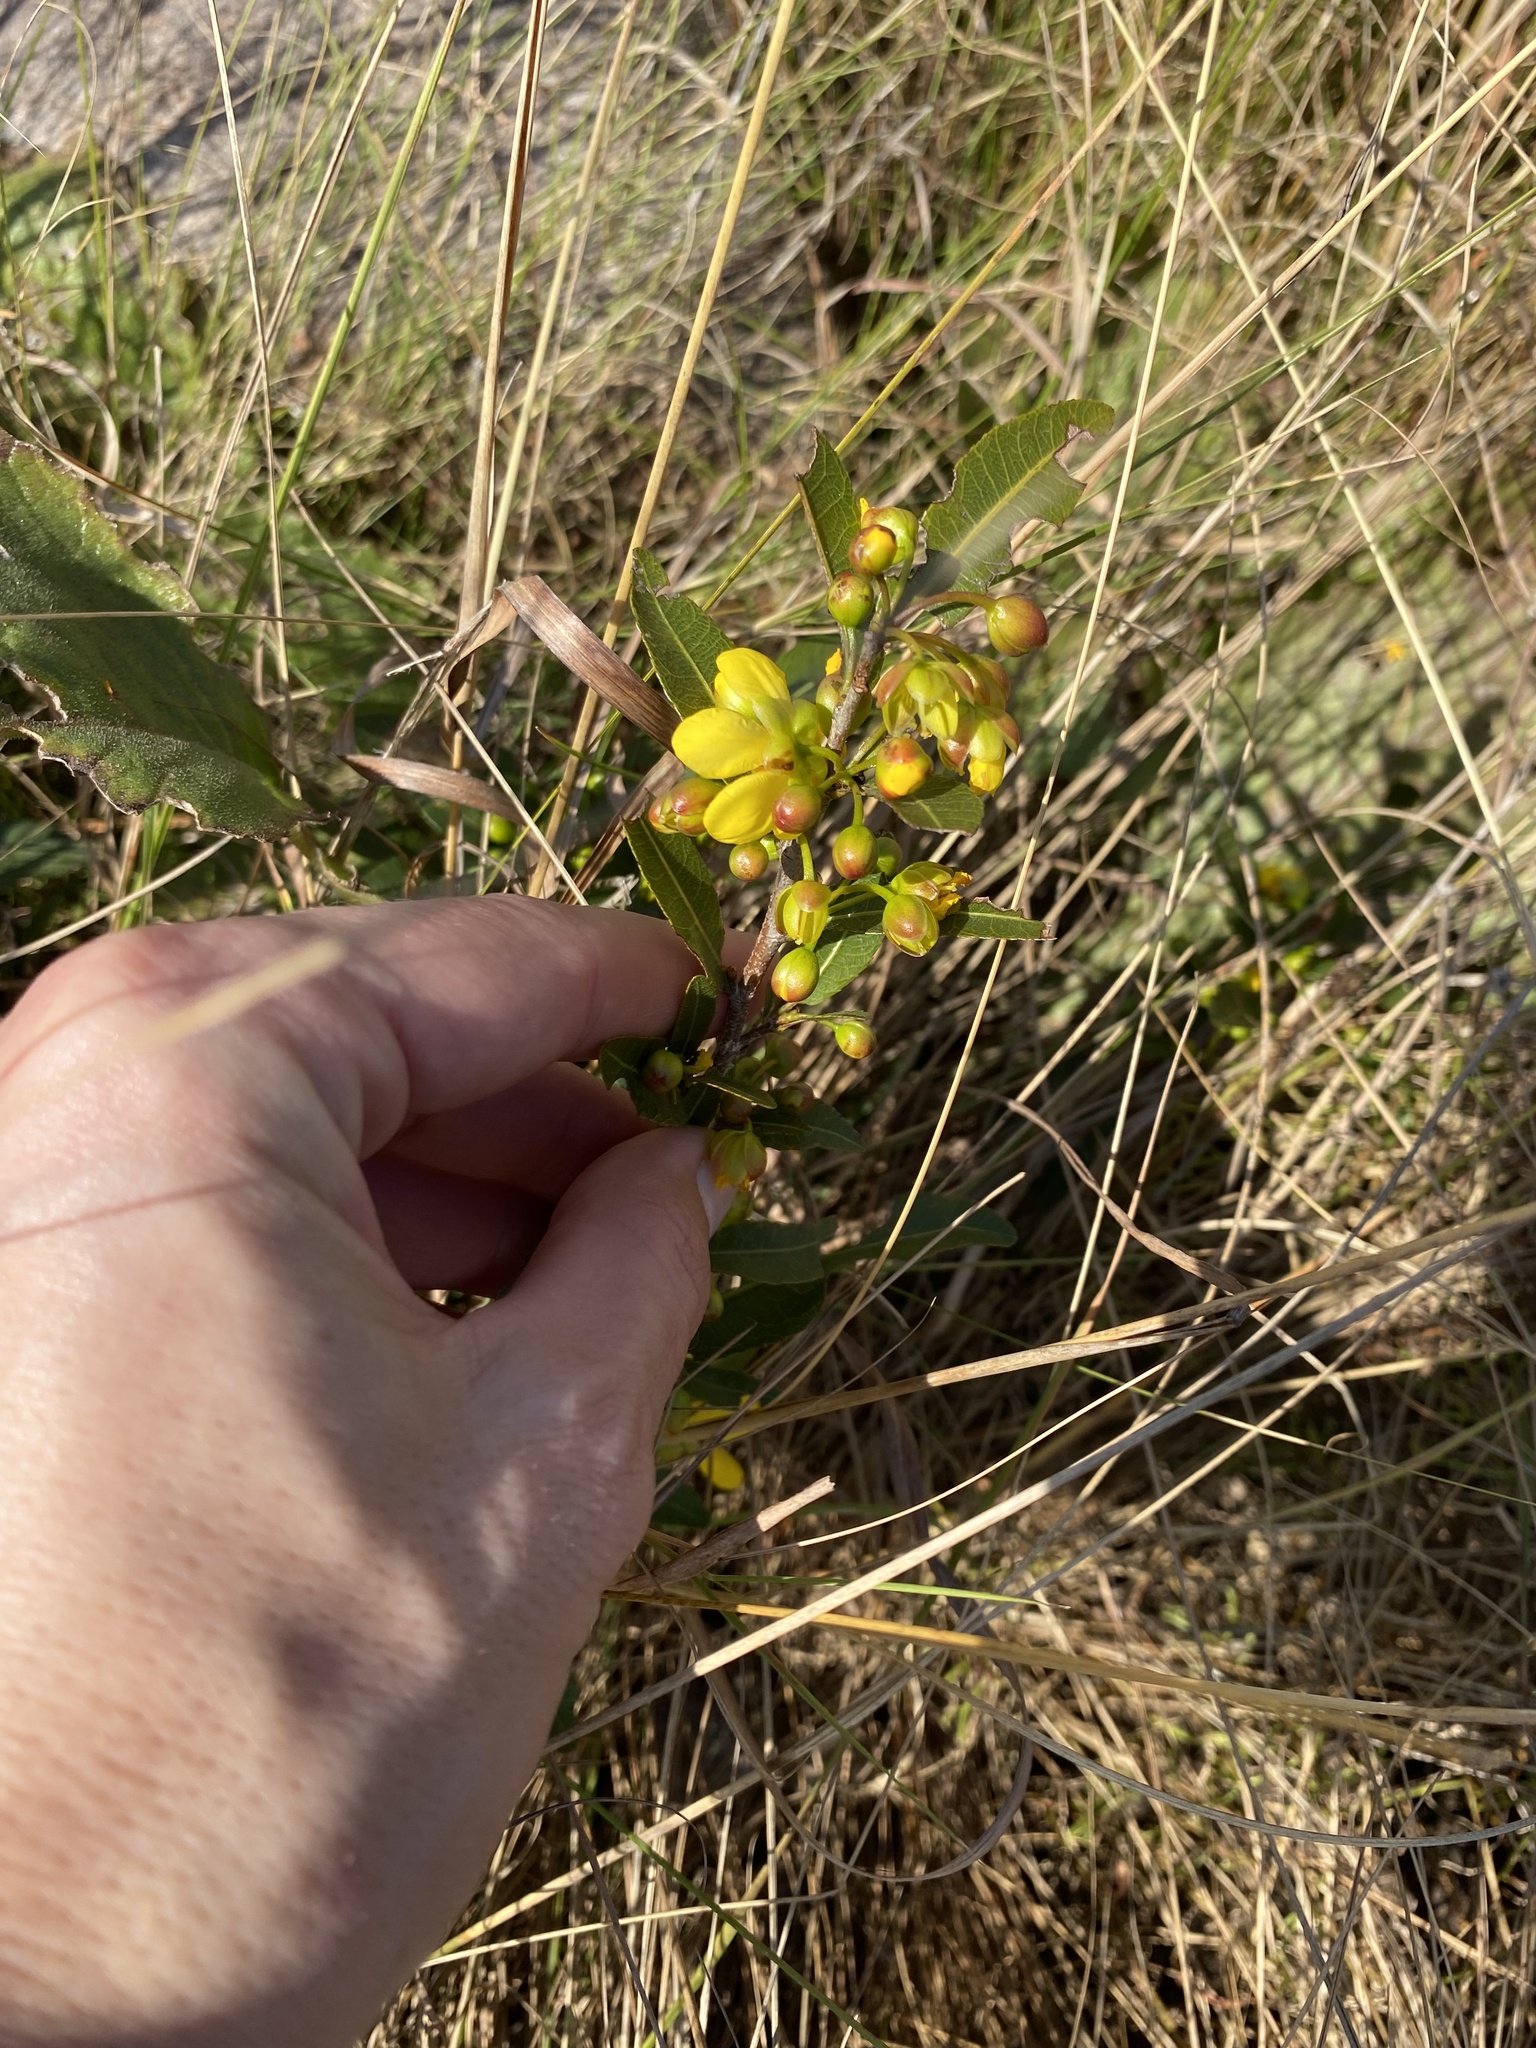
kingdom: Plantae
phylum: Tracheophyta
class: Magnoliopsida
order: Malpighiales
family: Ochnaceae
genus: Ochna
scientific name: Ochna serrulata
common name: Mickey mouse plant
